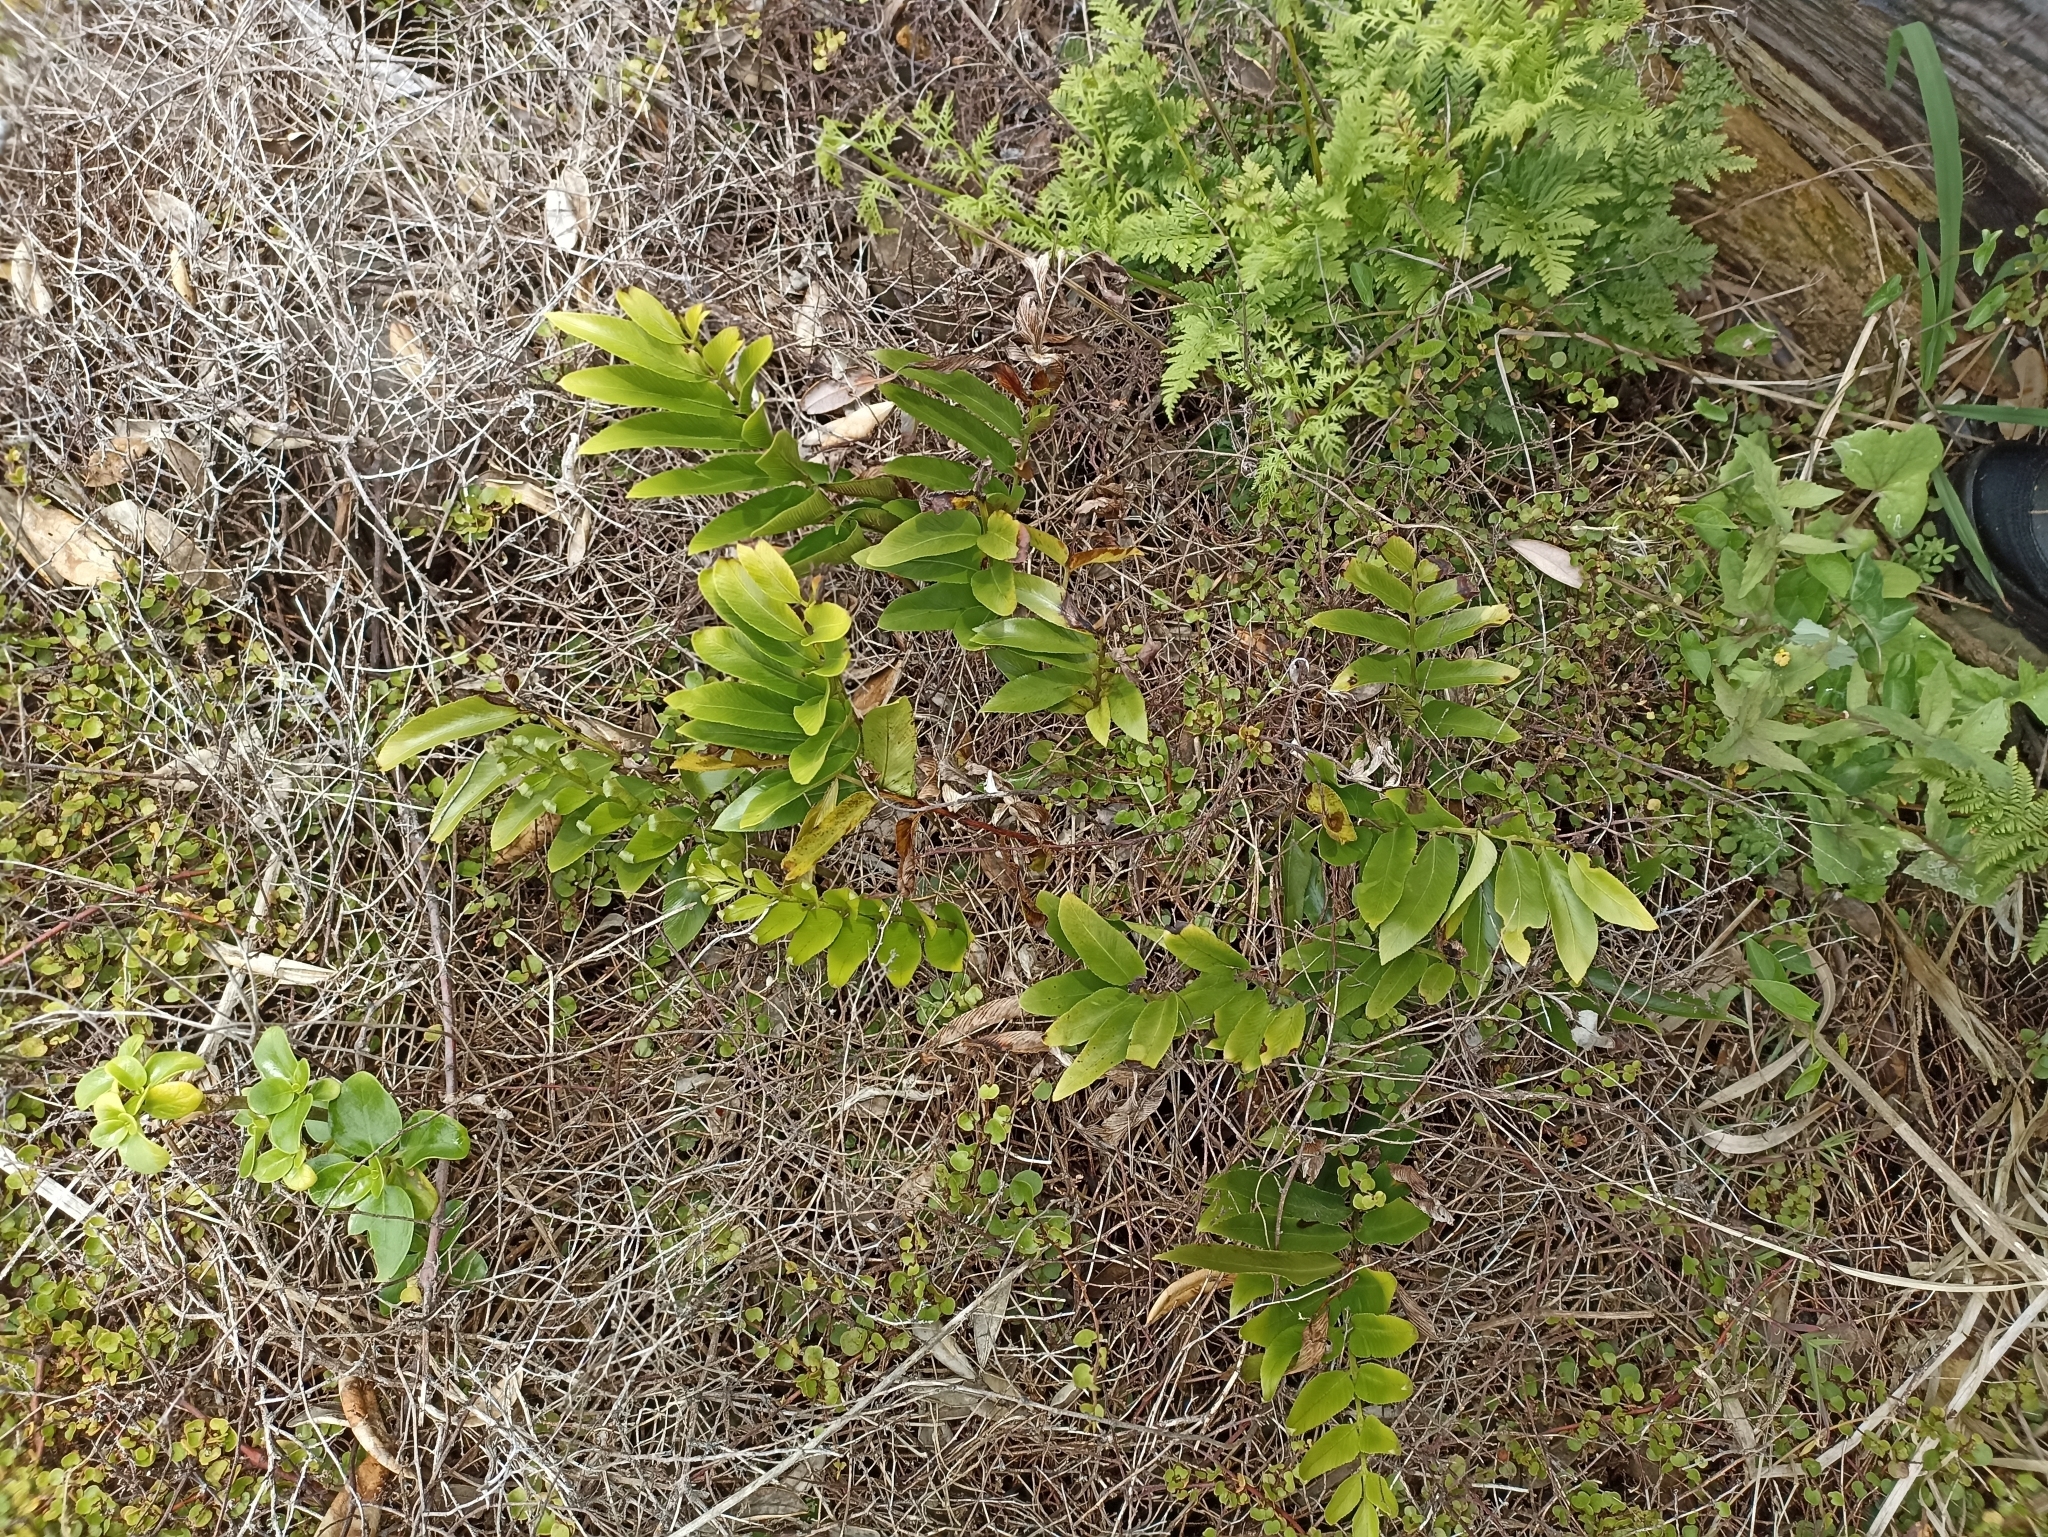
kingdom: Plantae
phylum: Tracheophyta
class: Polypodiopsida
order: Polypodiales
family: Aspleniaceae
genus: Asplenium
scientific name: Asplenium oblongifolium
